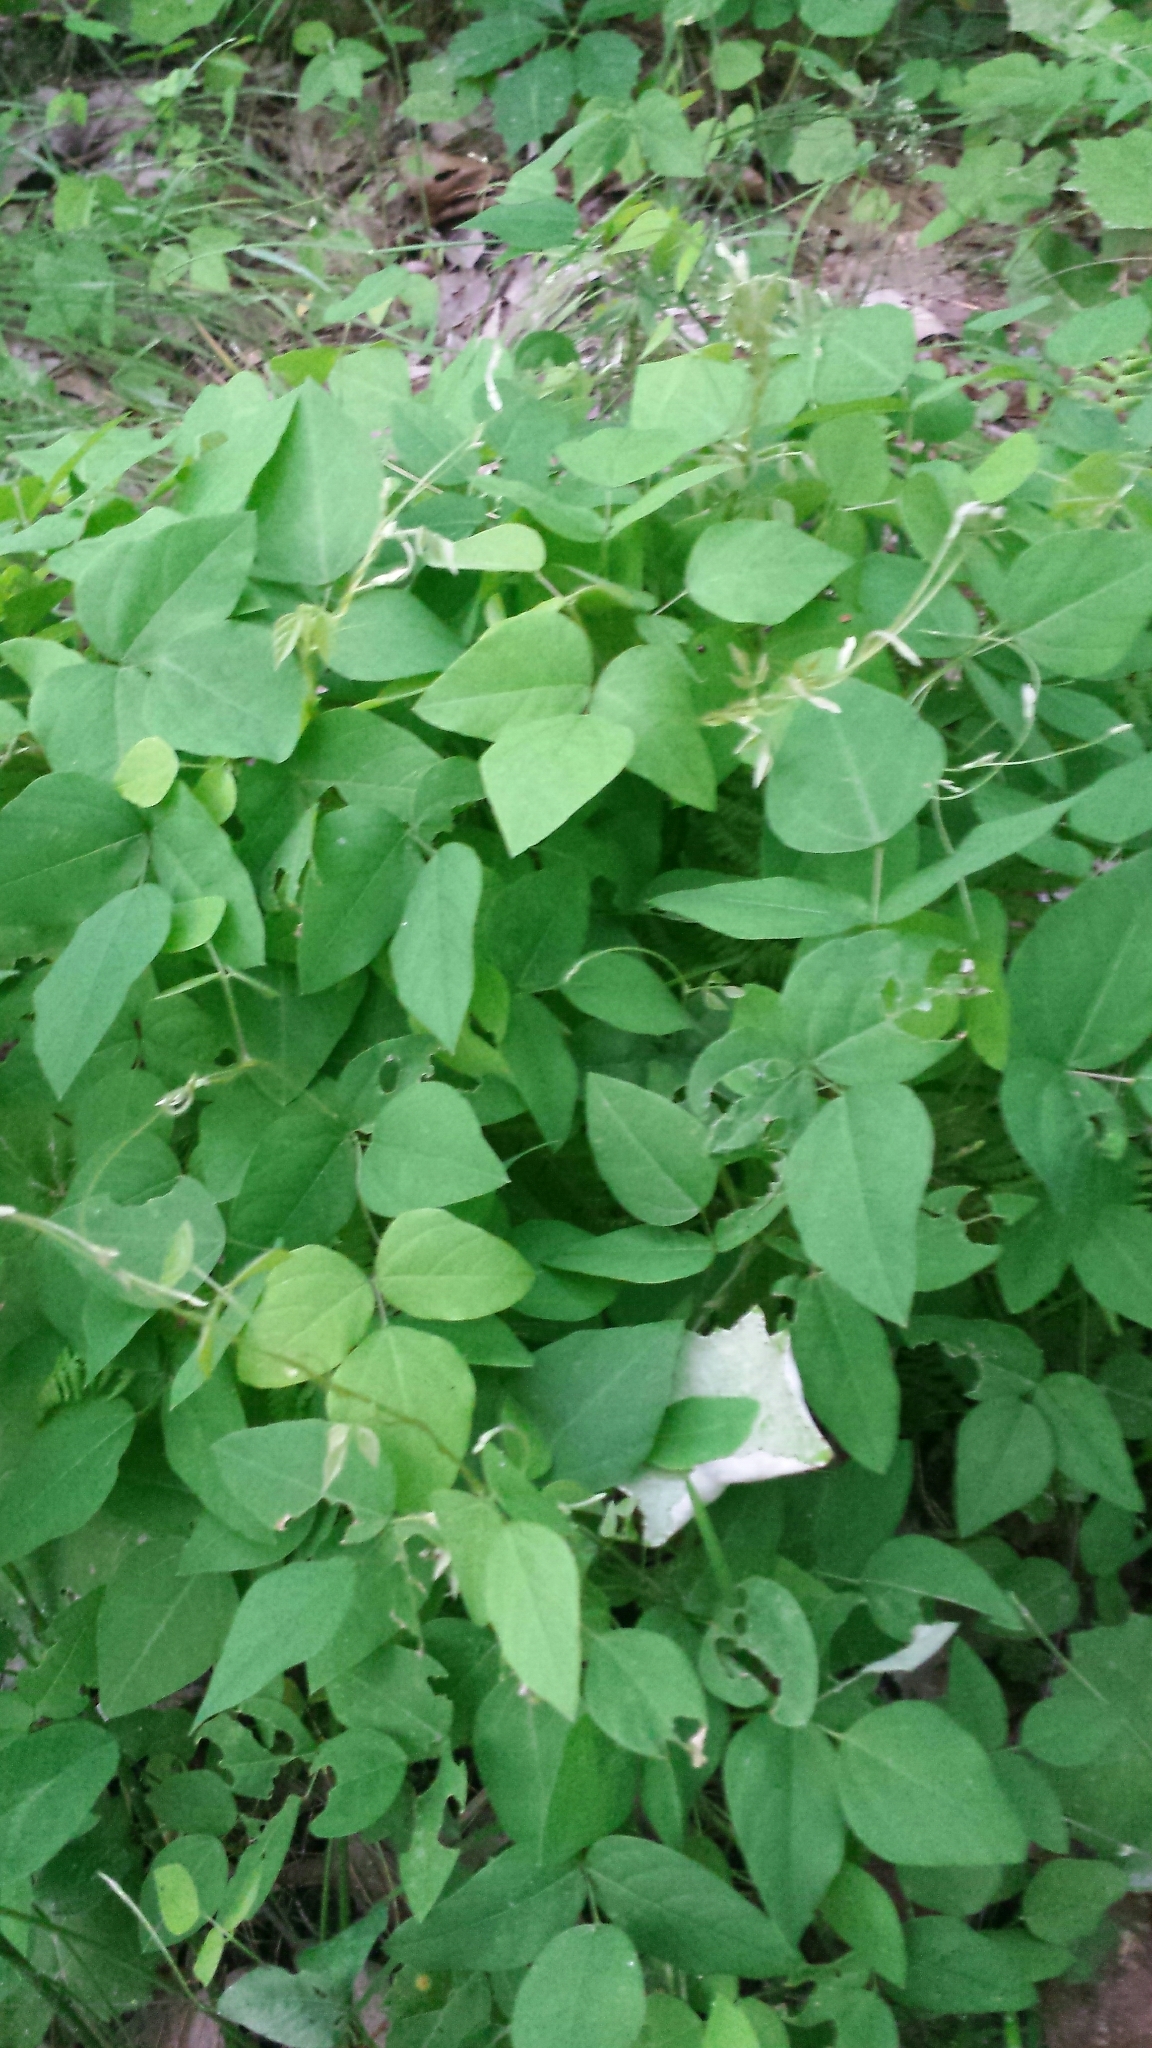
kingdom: Plantae
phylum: Tracheophyta
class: Magnoliopsida
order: Fabales
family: Fabaceae
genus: Amphicarpaea
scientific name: Amphicarpaea bracteata
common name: American hog peanut
